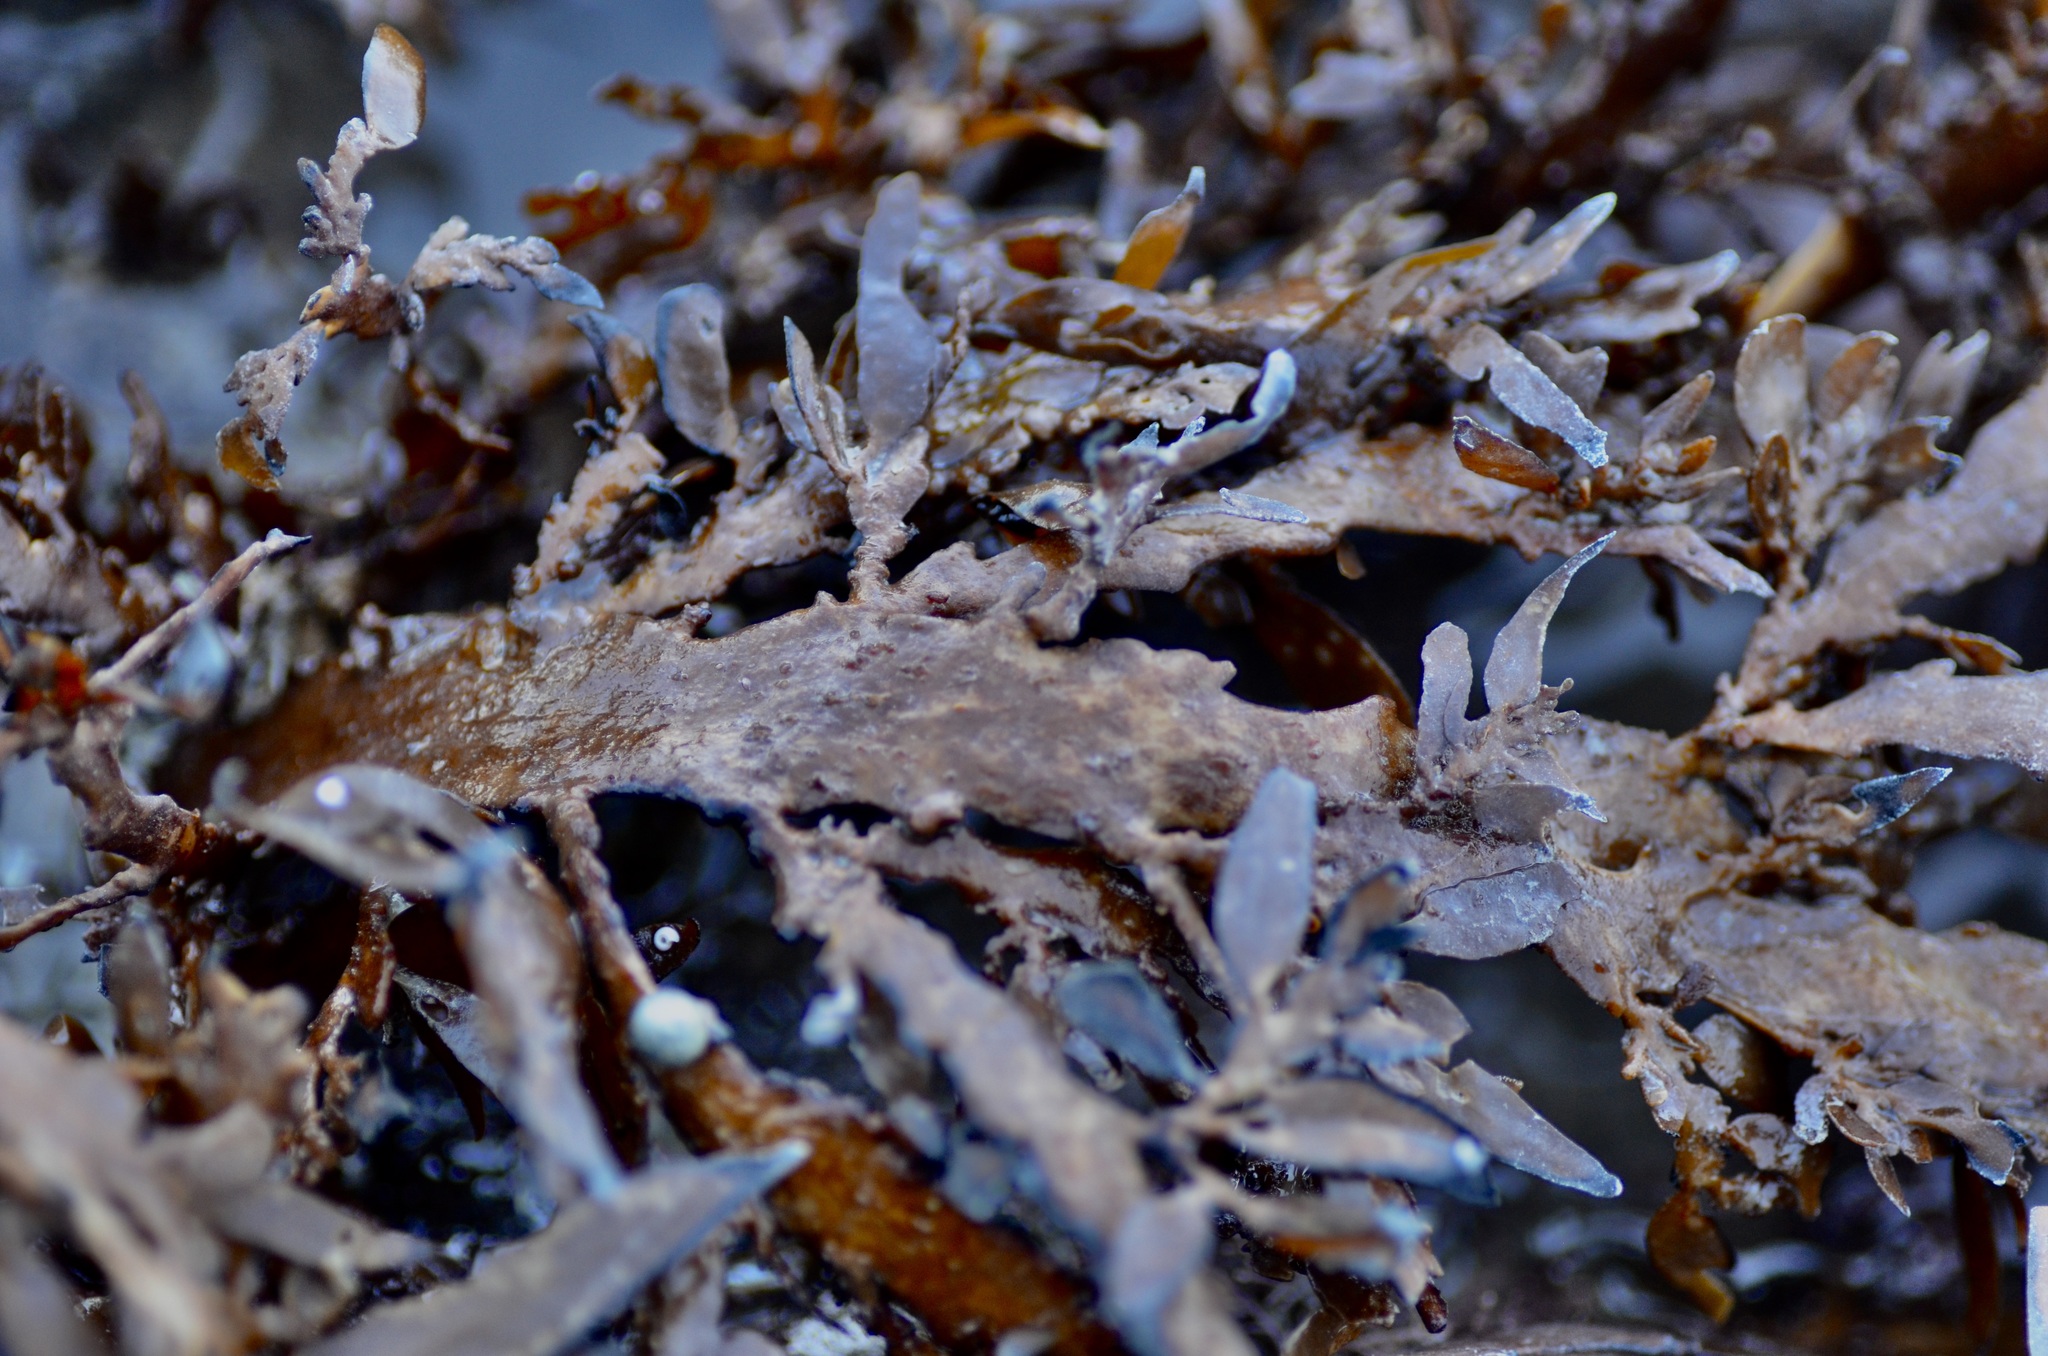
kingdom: Chromista
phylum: Ochrophyta
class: Phaeophyceae
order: Fucales
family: Sargassaceae
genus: Carpophyllum
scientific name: Carpophyllum maschalocarpum
